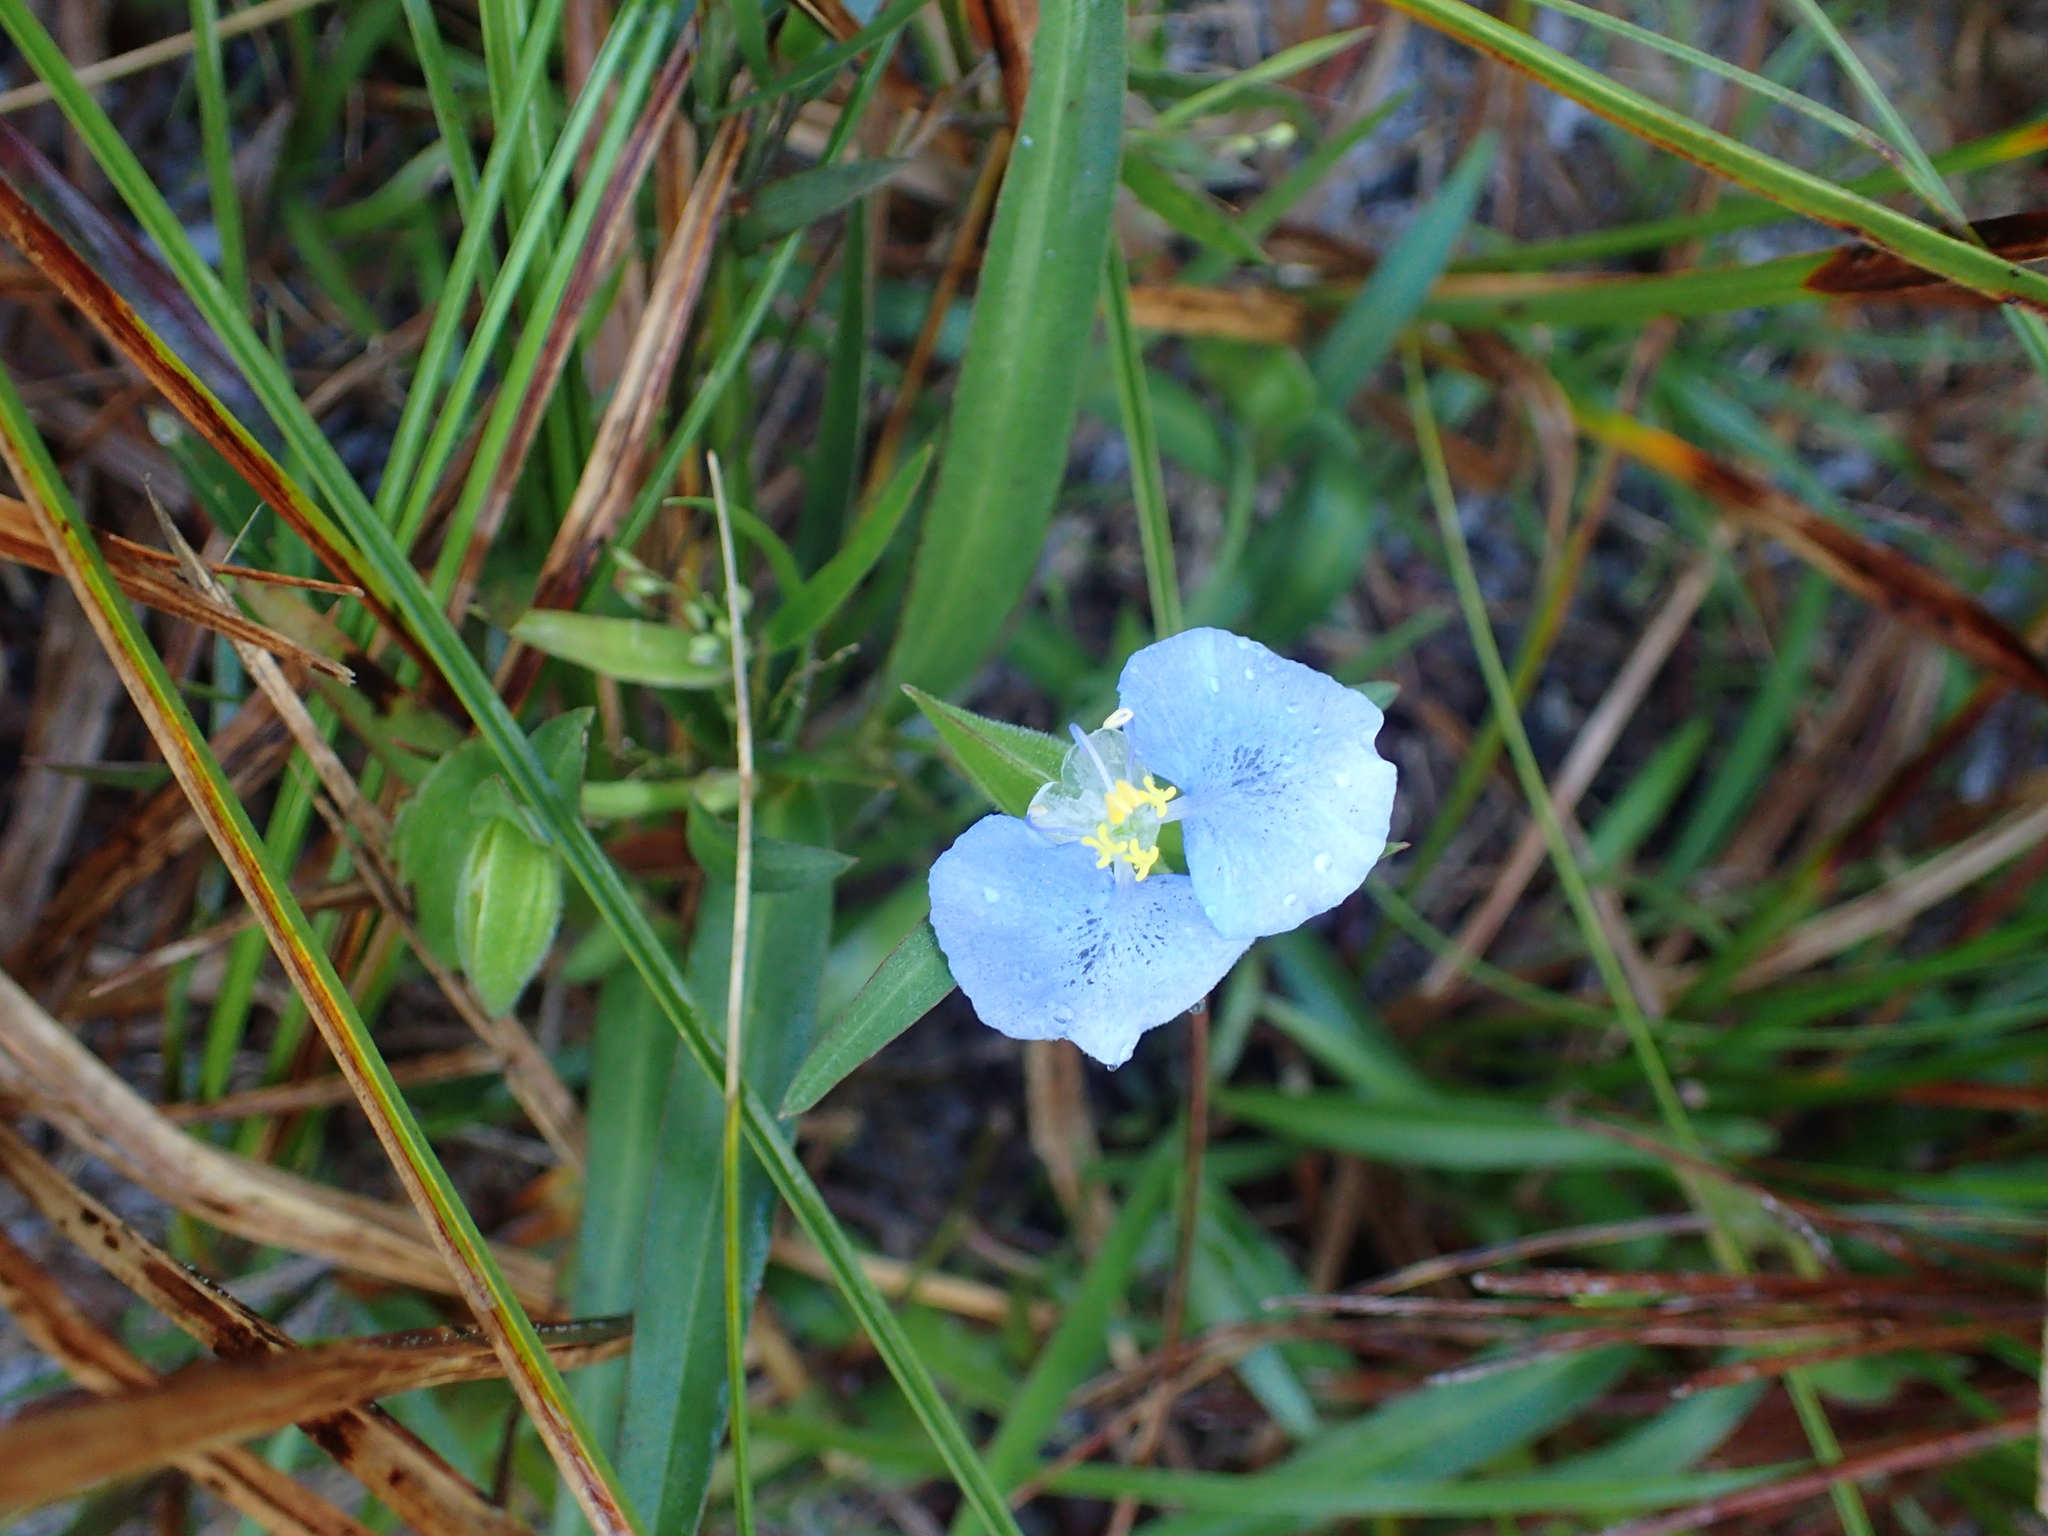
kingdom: Plantae
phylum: Tracheophyta
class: Liliopsida
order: Commelinales
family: Commelinaceae
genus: Commelina
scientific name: Commelina erecta
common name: Blousel blommetjie
